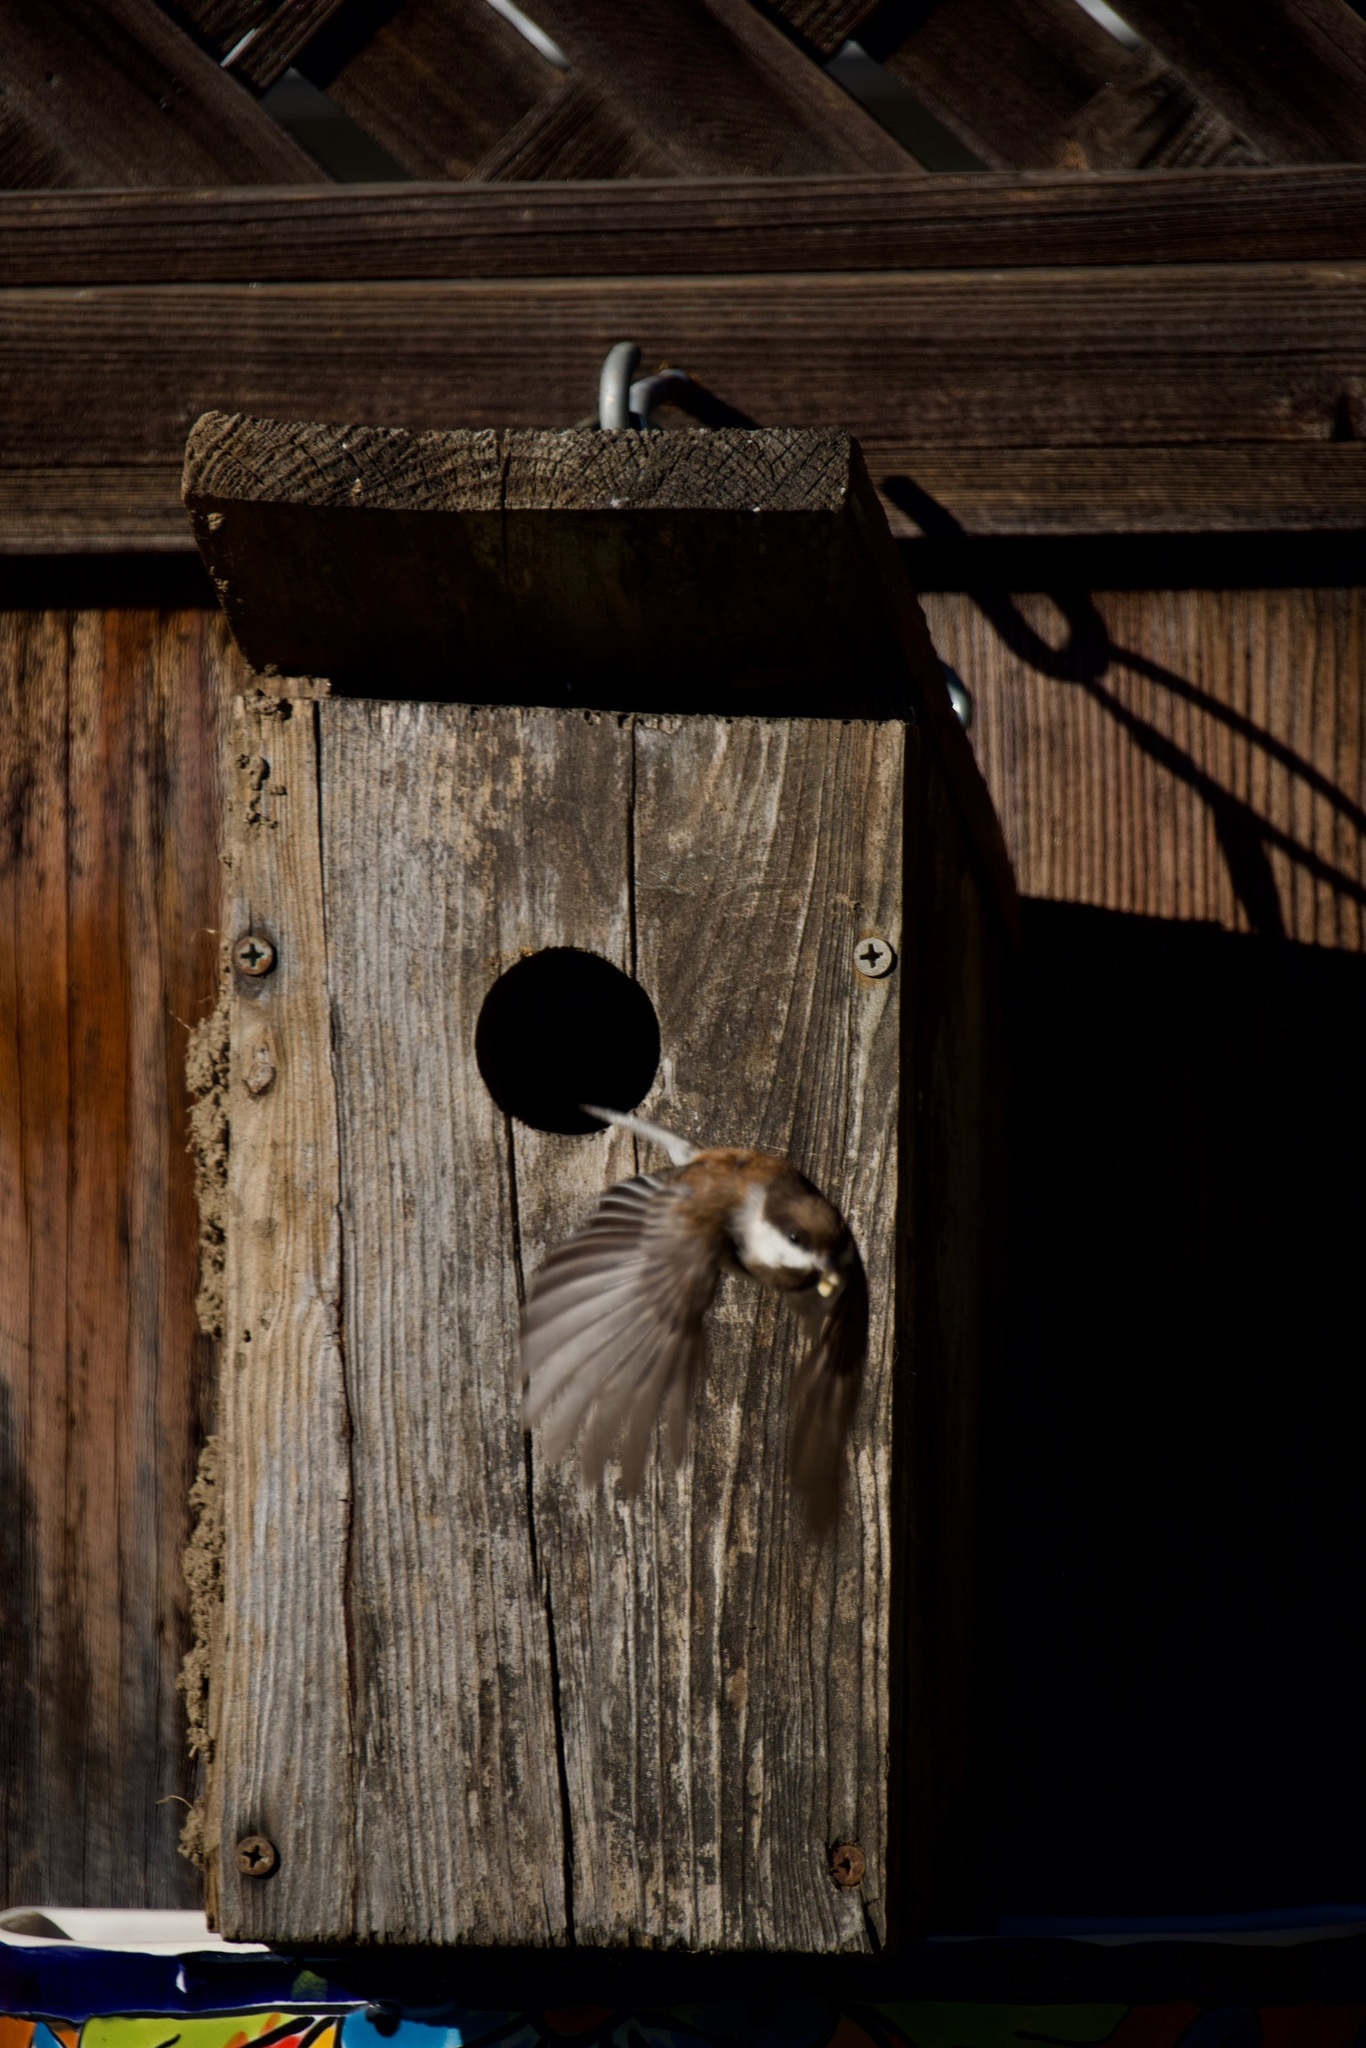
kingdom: Animalia
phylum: Chordata
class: Aves
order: Passeriformes
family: Paridae
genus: Poecile
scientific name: Poecile rufescens
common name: Chestnut-backed chickadee
